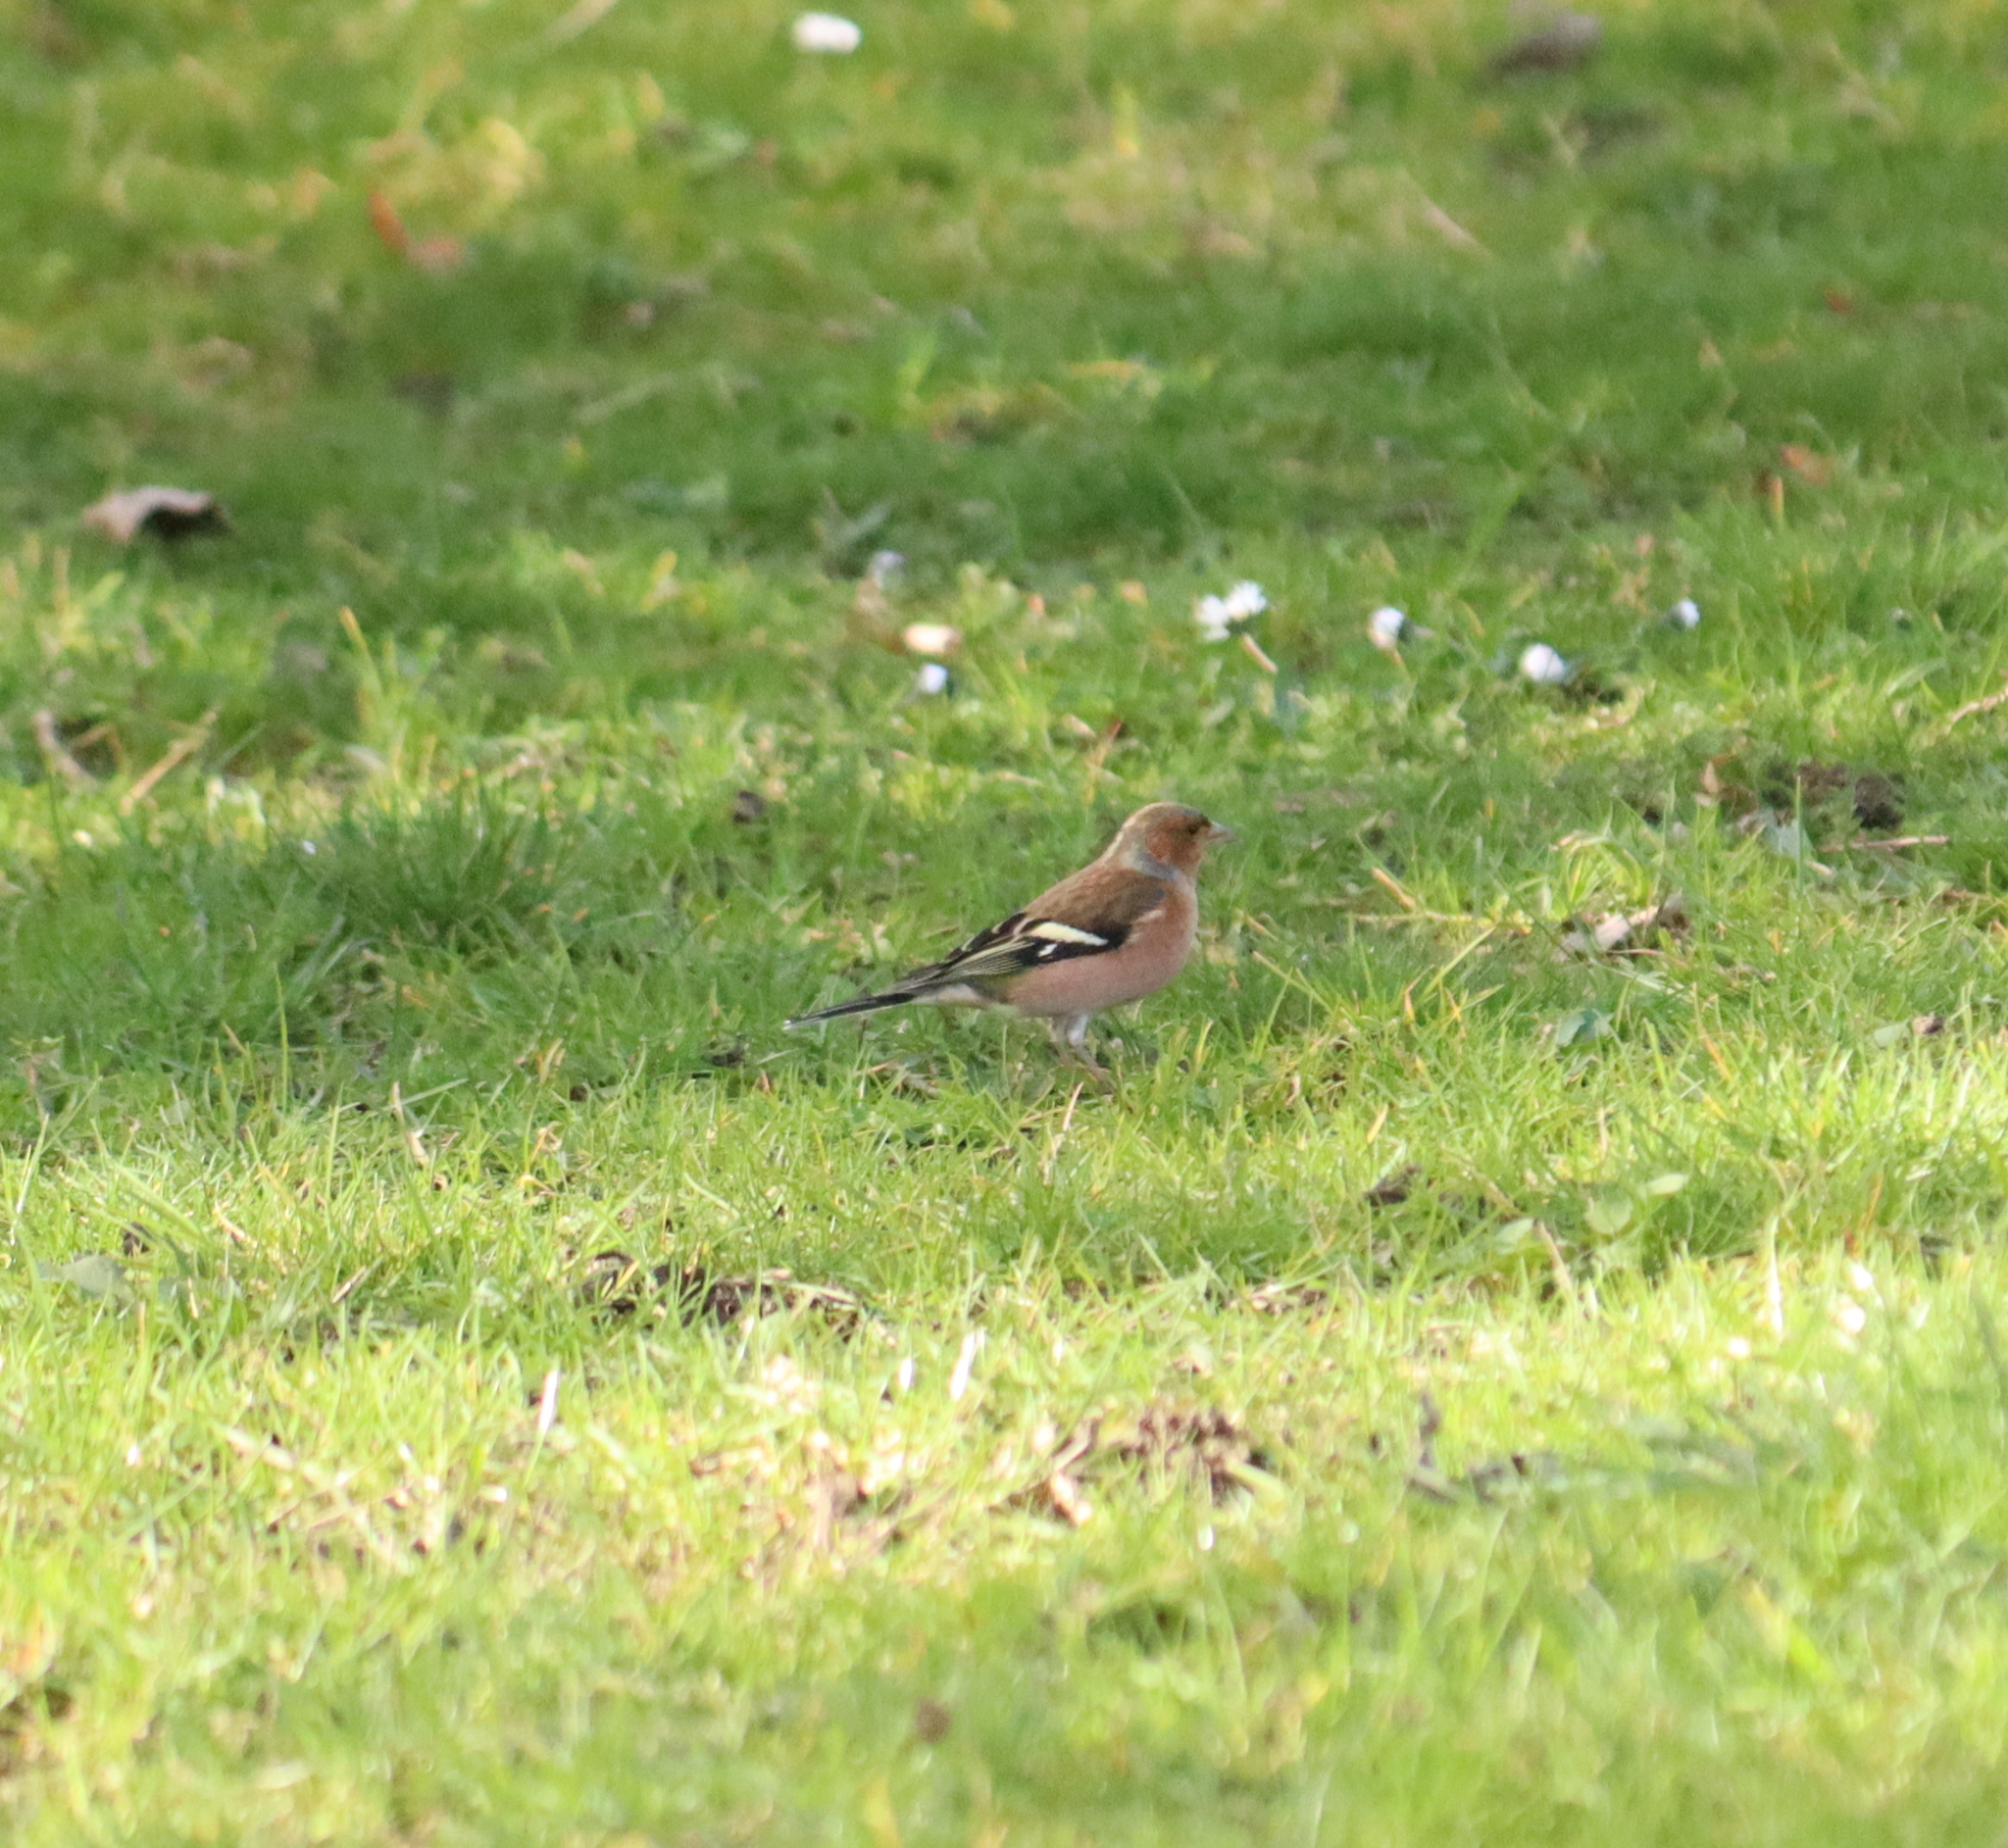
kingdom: Animalia
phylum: Chordata
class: Aves
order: Passeriformes
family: Fringillidae
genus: Fringilla
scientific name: Fringilla coelebs
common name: Common chaffinch
